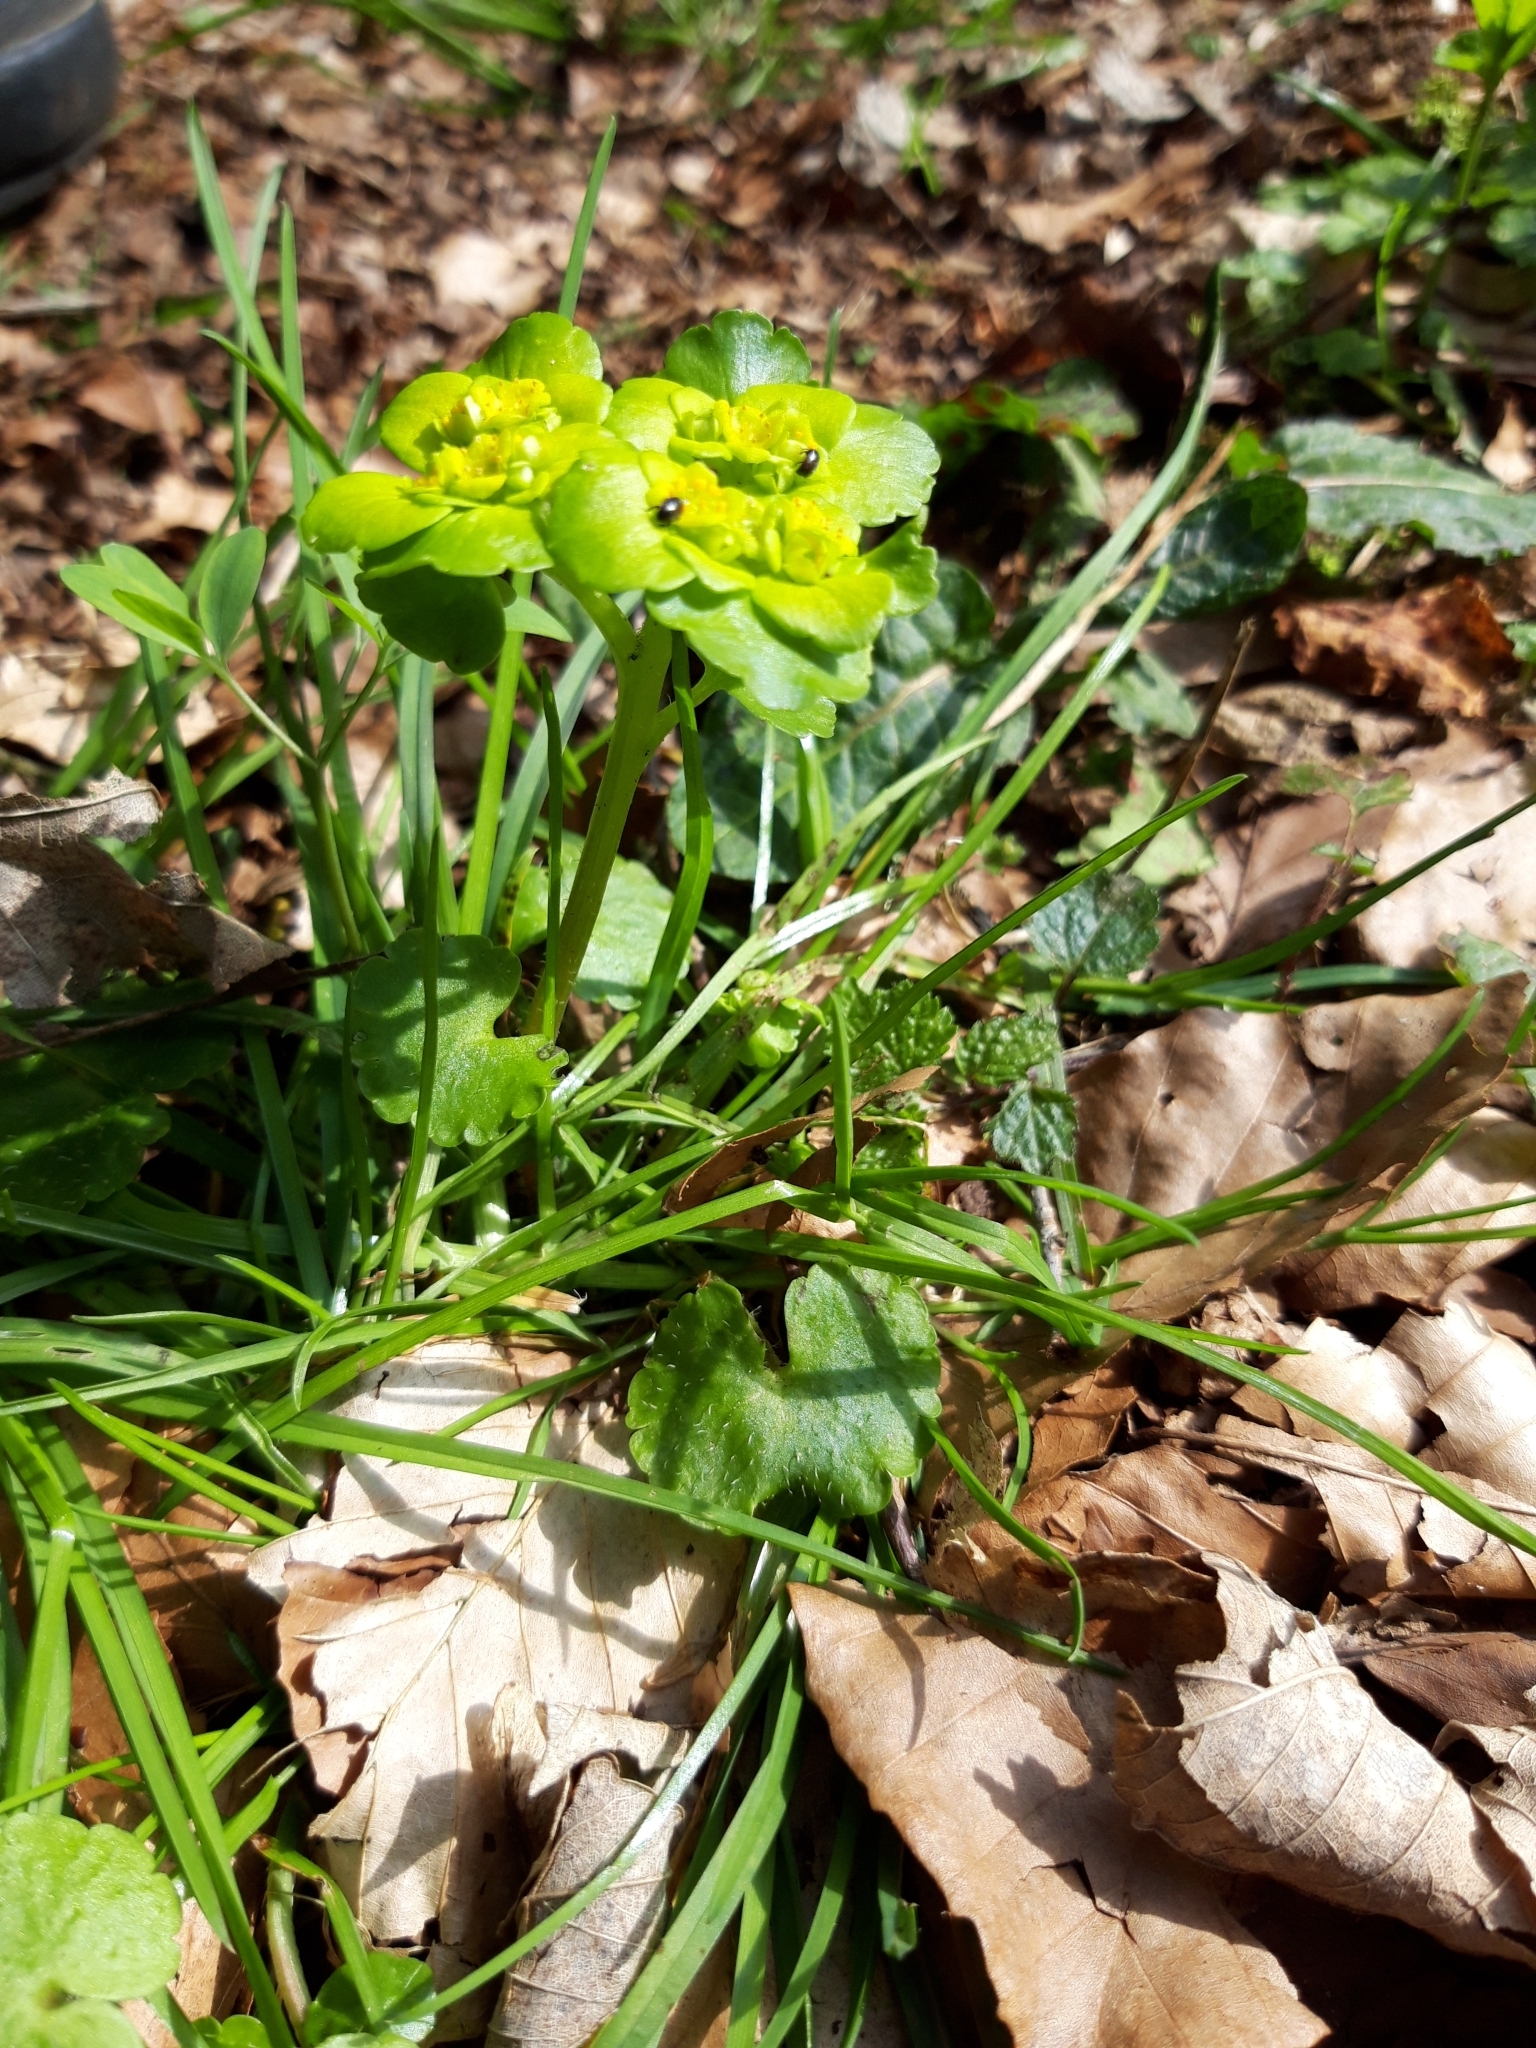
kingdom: Plantae
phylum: Tracheophyta
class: Magnoliopsida
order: Saxifragales
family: Saxifragaceae
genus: Chrysosplenium
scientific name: Chrysosplenium alternifolium
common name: Alternate-leaved golden-saxifrage
